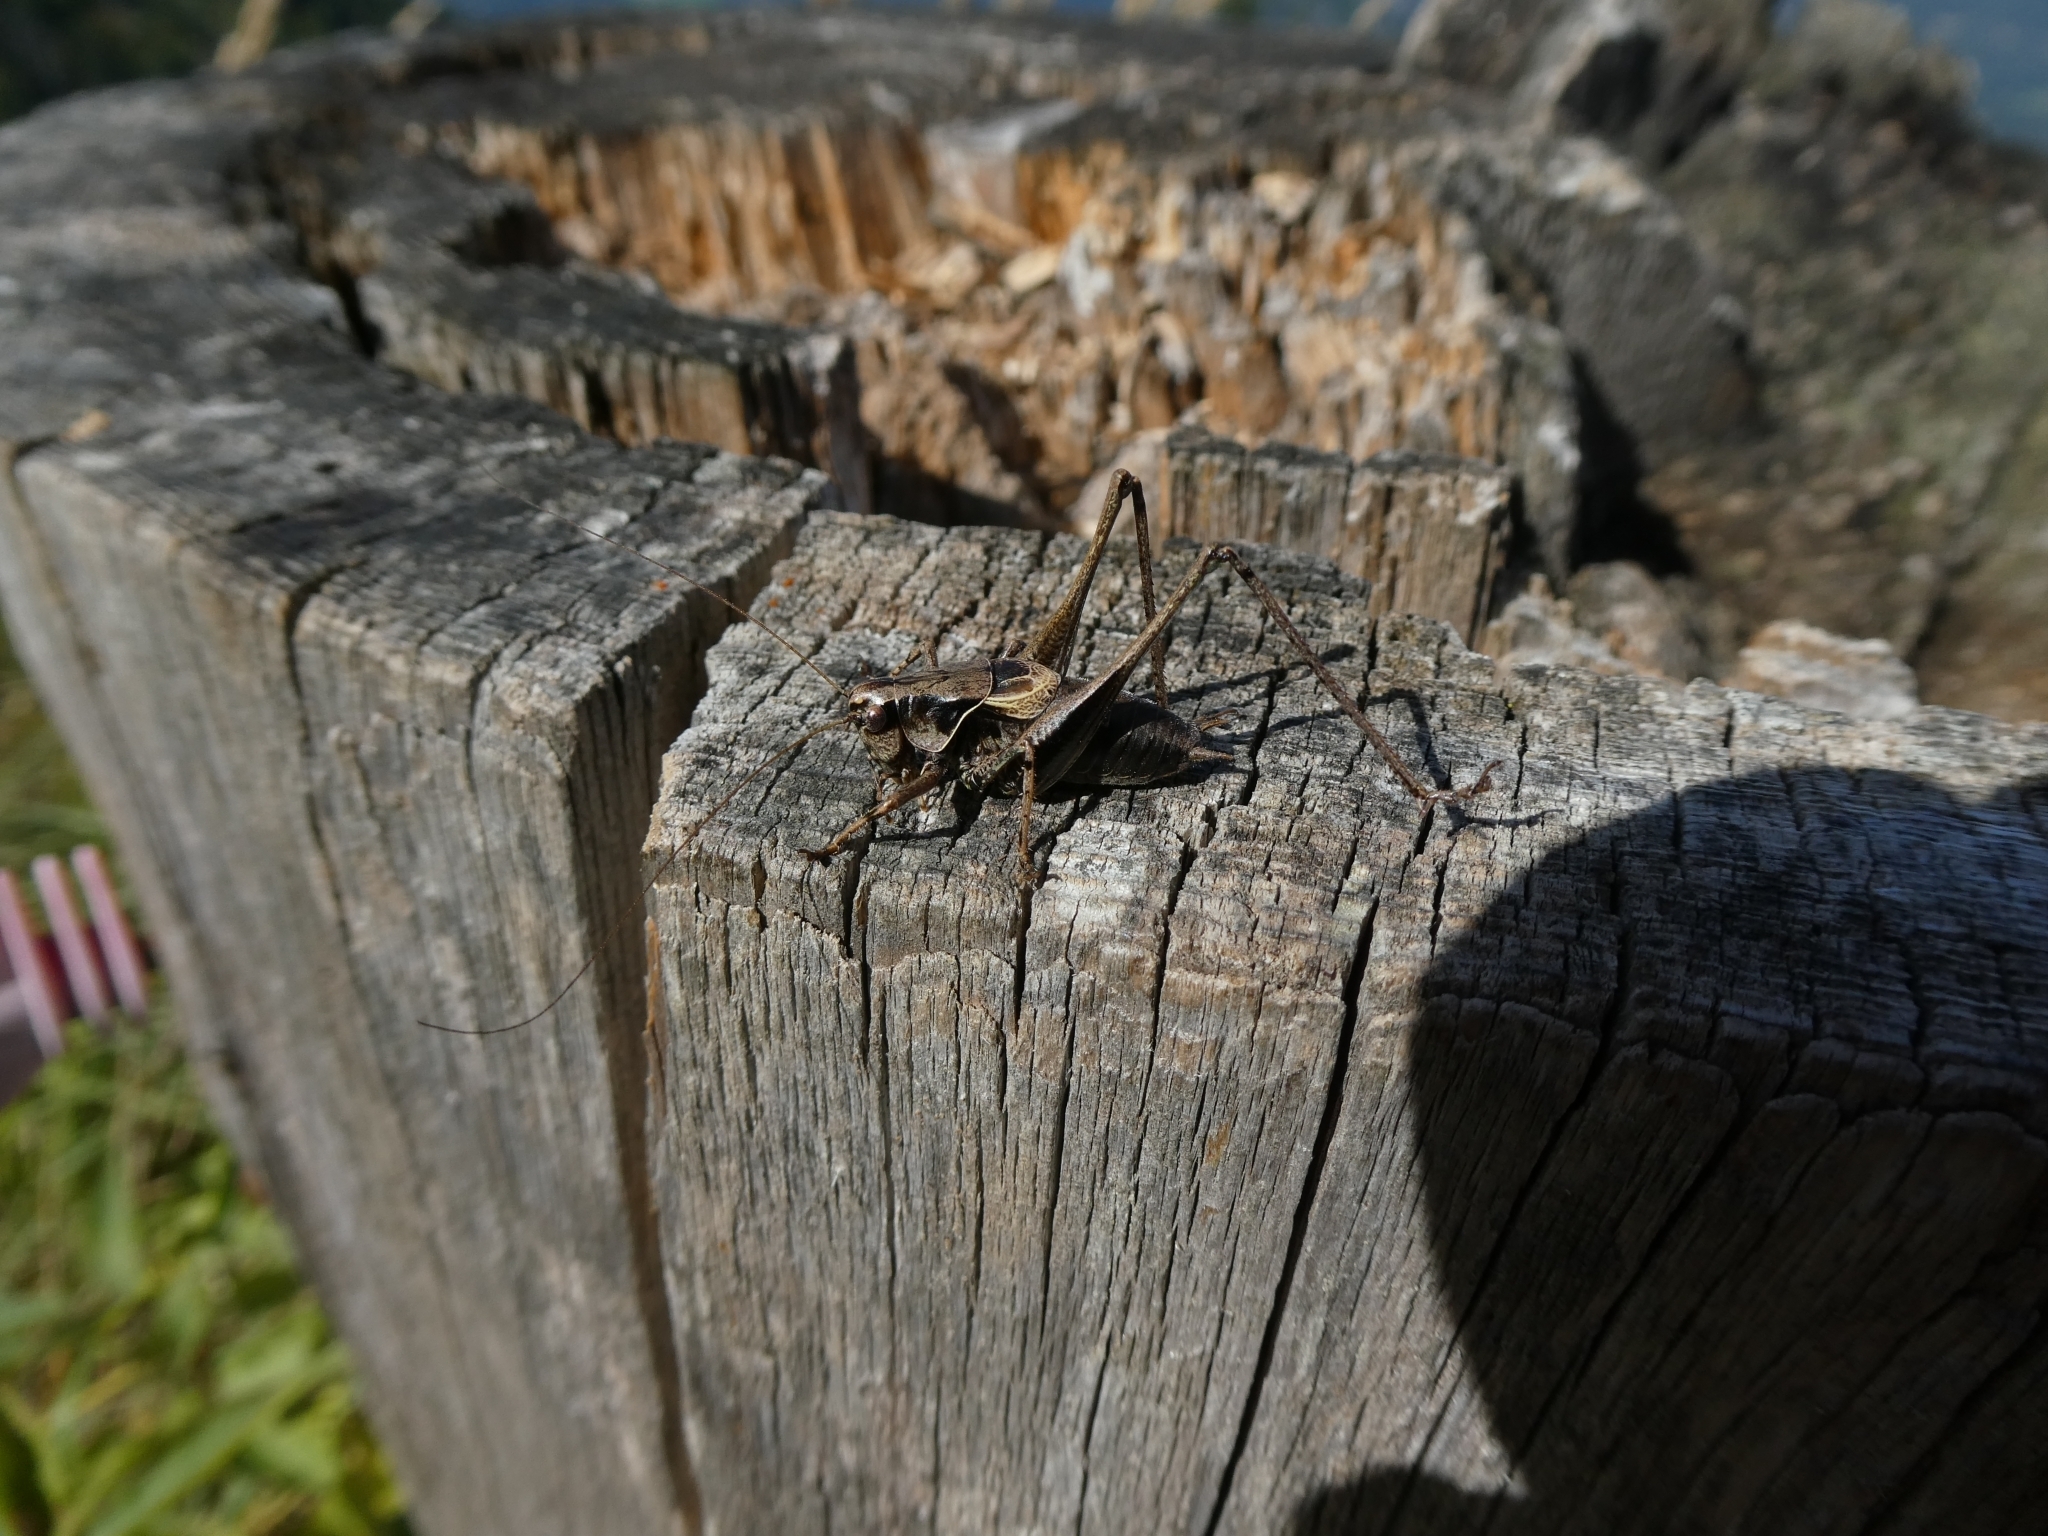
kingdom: Animalia
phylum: Arthropoda
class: Insecta
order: Orthoptera
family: Tettigoniidae
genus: Pholidoptera
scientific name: Pholidoptera griseoaptera
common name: Dark bush-cricket
